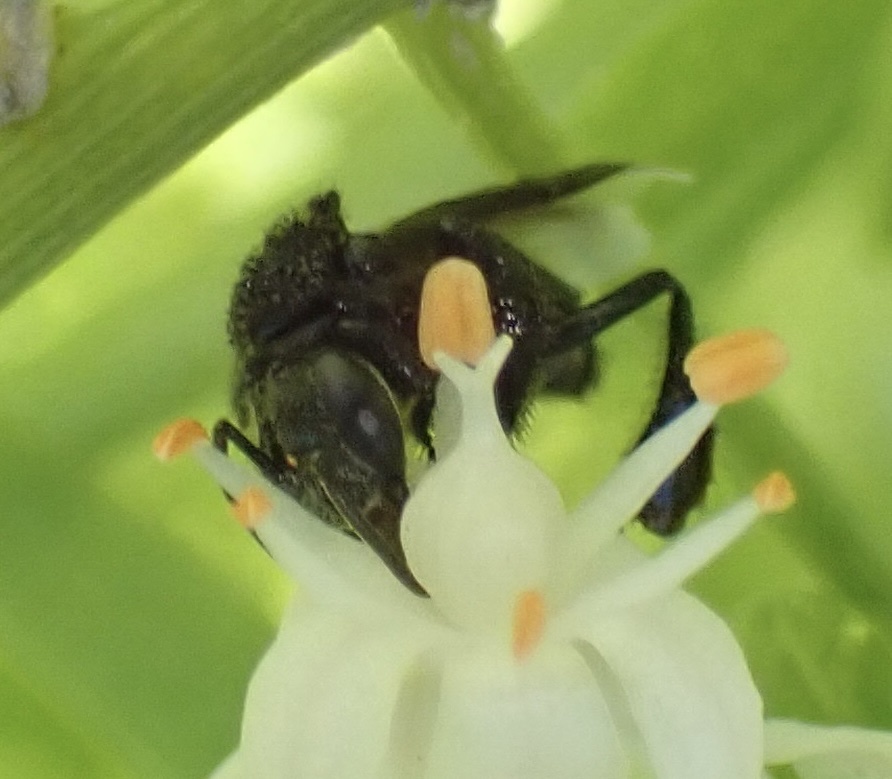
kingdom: Animalia
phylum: Arthropoda
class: Insecta
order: Hymenoptera
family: Apidae
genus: Frieseomelitta
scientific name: Frieseomelitta nigra
